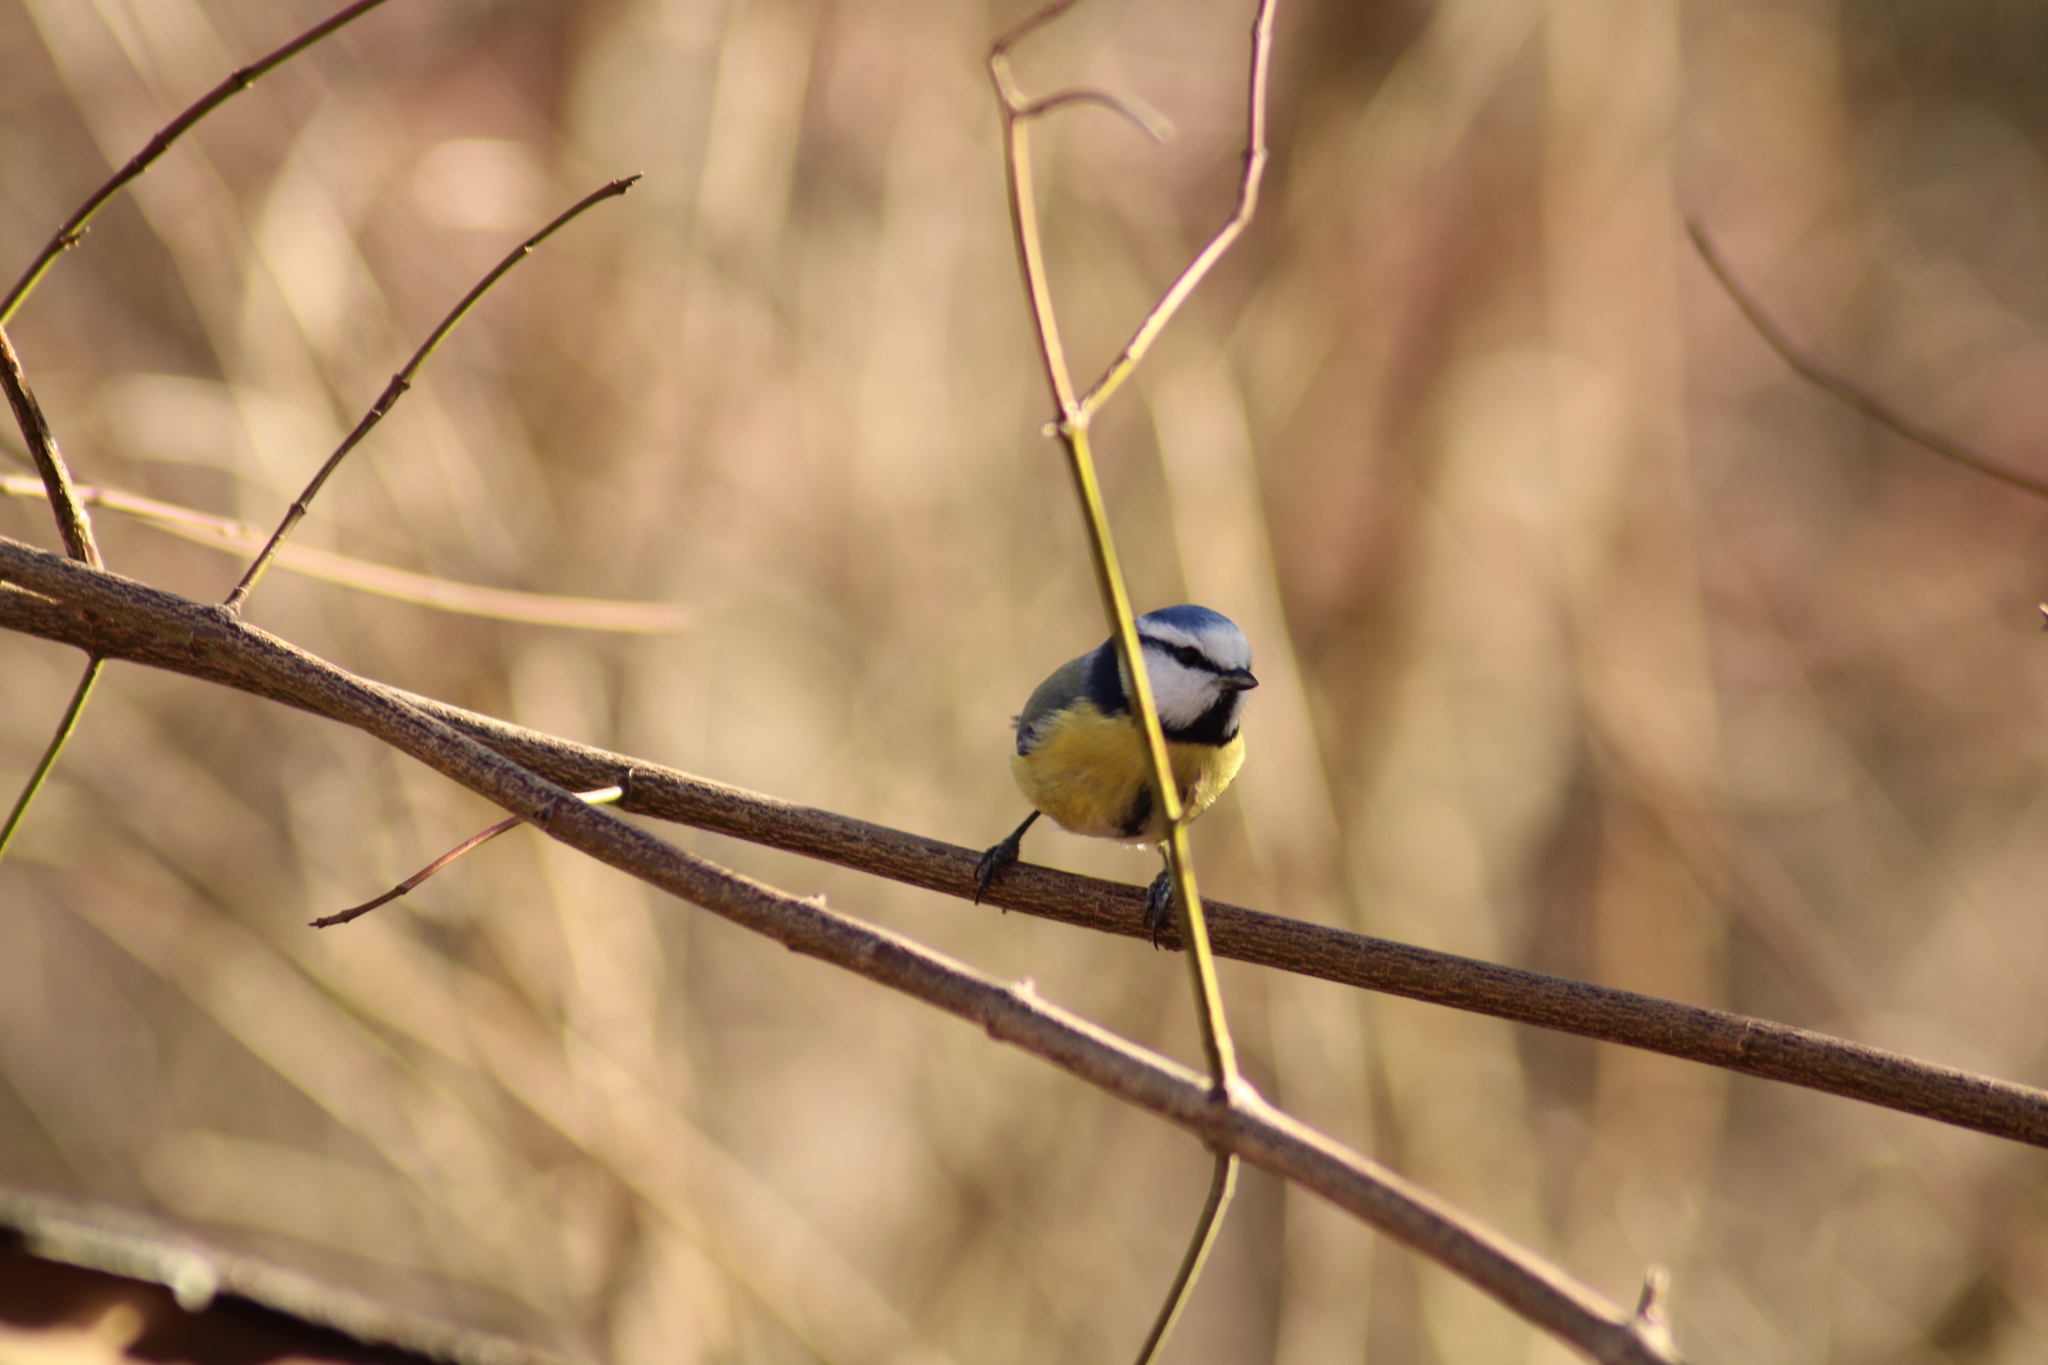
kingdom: Animalia
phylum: Chordata
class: Aves
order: Passeriformes
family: Paridae
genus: Cyanistes
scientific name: Cyanistes caeruleus
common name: Eurasian blue tit
